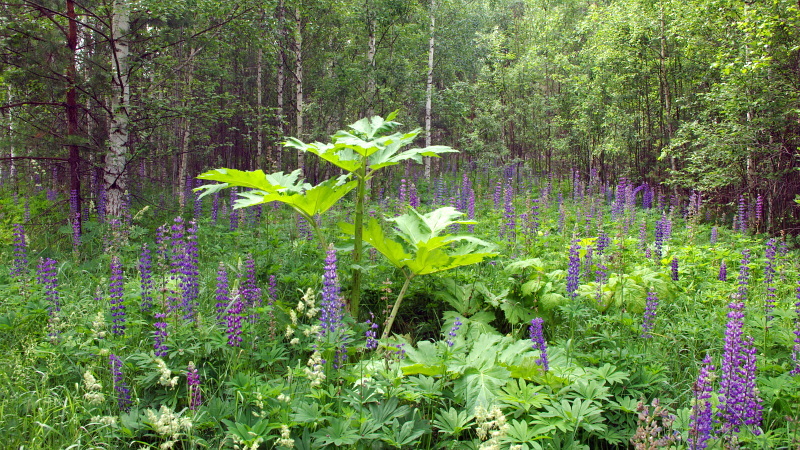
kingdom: Plantae
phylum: Tracheophyta
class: Magnoliopsida
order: Apiales
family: Apiaceae
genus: Heracleum
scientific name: Heracleum sosnowskyi
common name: Sosnowsky's hogweed
